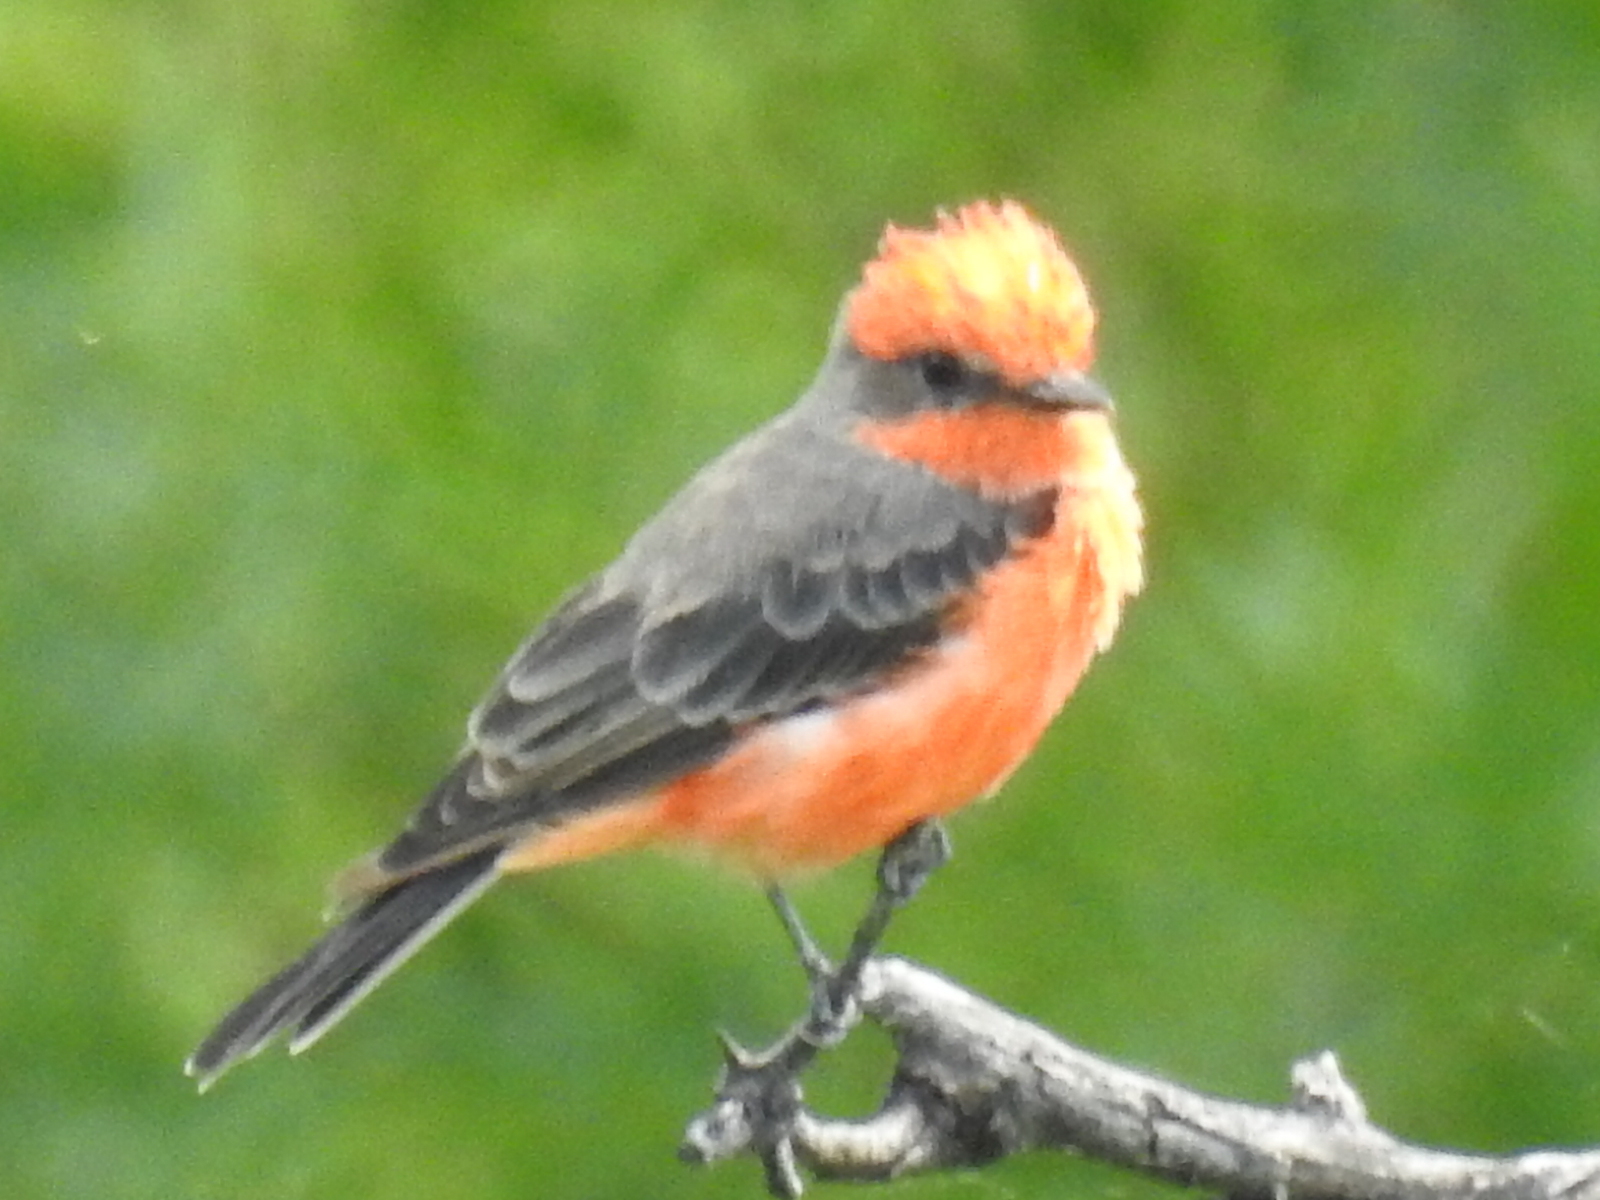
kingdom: Animalia
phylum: Chordata
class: Aves
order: Passeriformes
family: Tyrannidae
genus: Pyrocephalus
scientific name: Pyrocephalus rubinus
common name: Vermilion flycatcher
